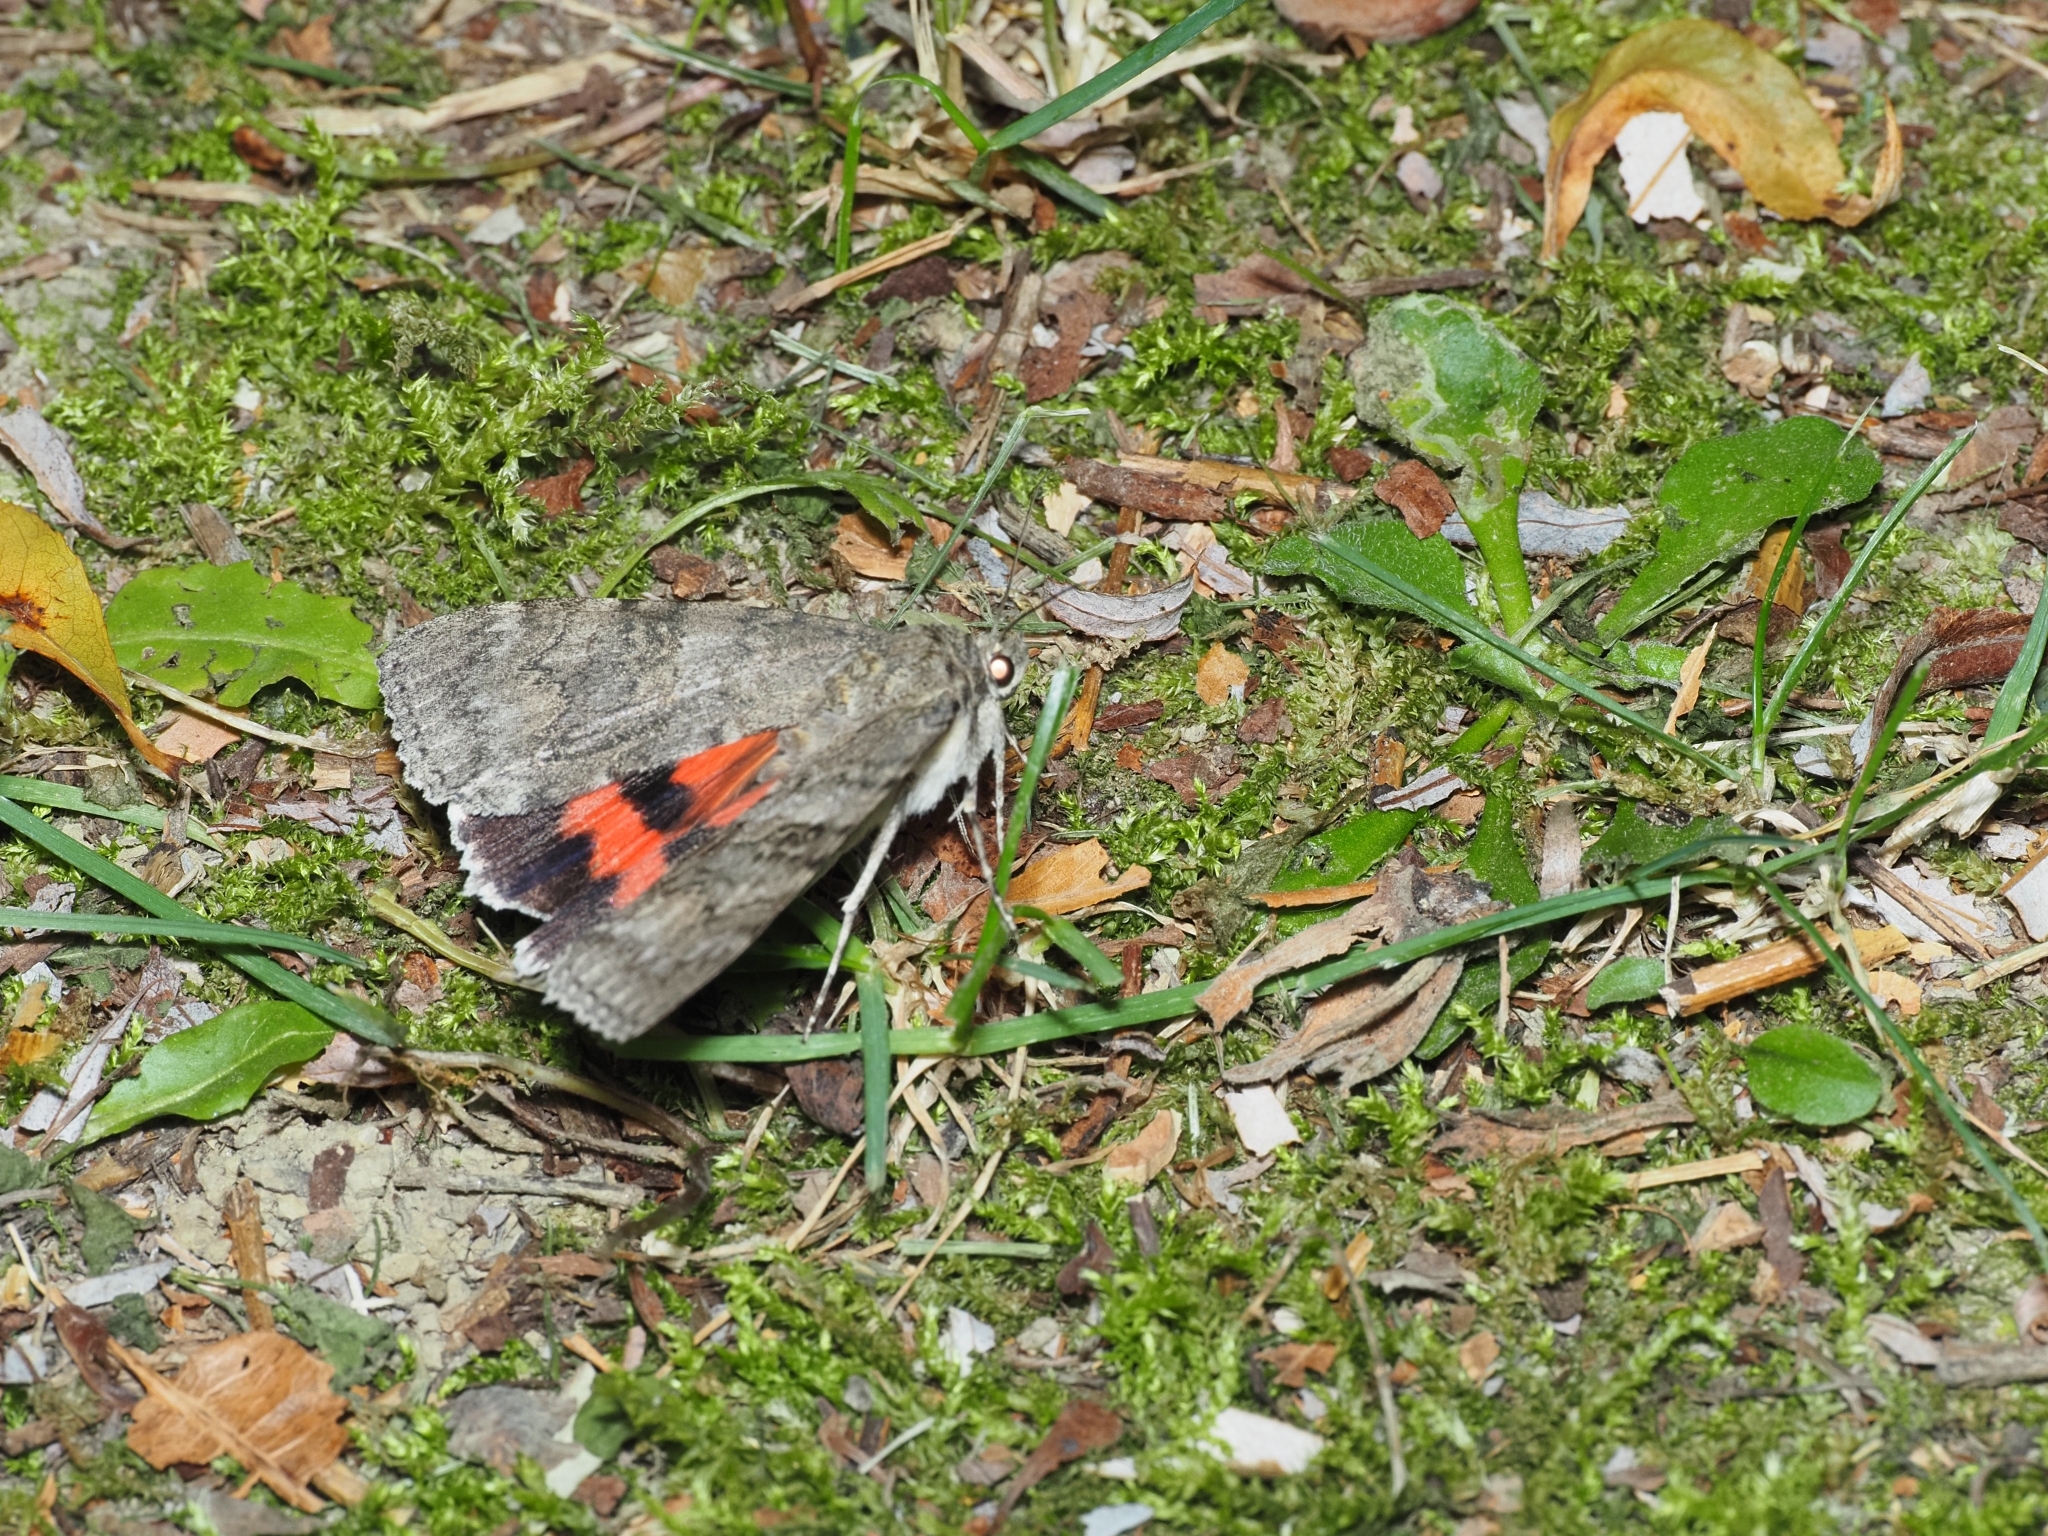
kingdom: Animalia
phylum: Arthropoda
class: Insecta
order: Lepidoptera
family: Erebidae
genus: Catocala
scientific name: Catocala nupta
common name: Red underwing
